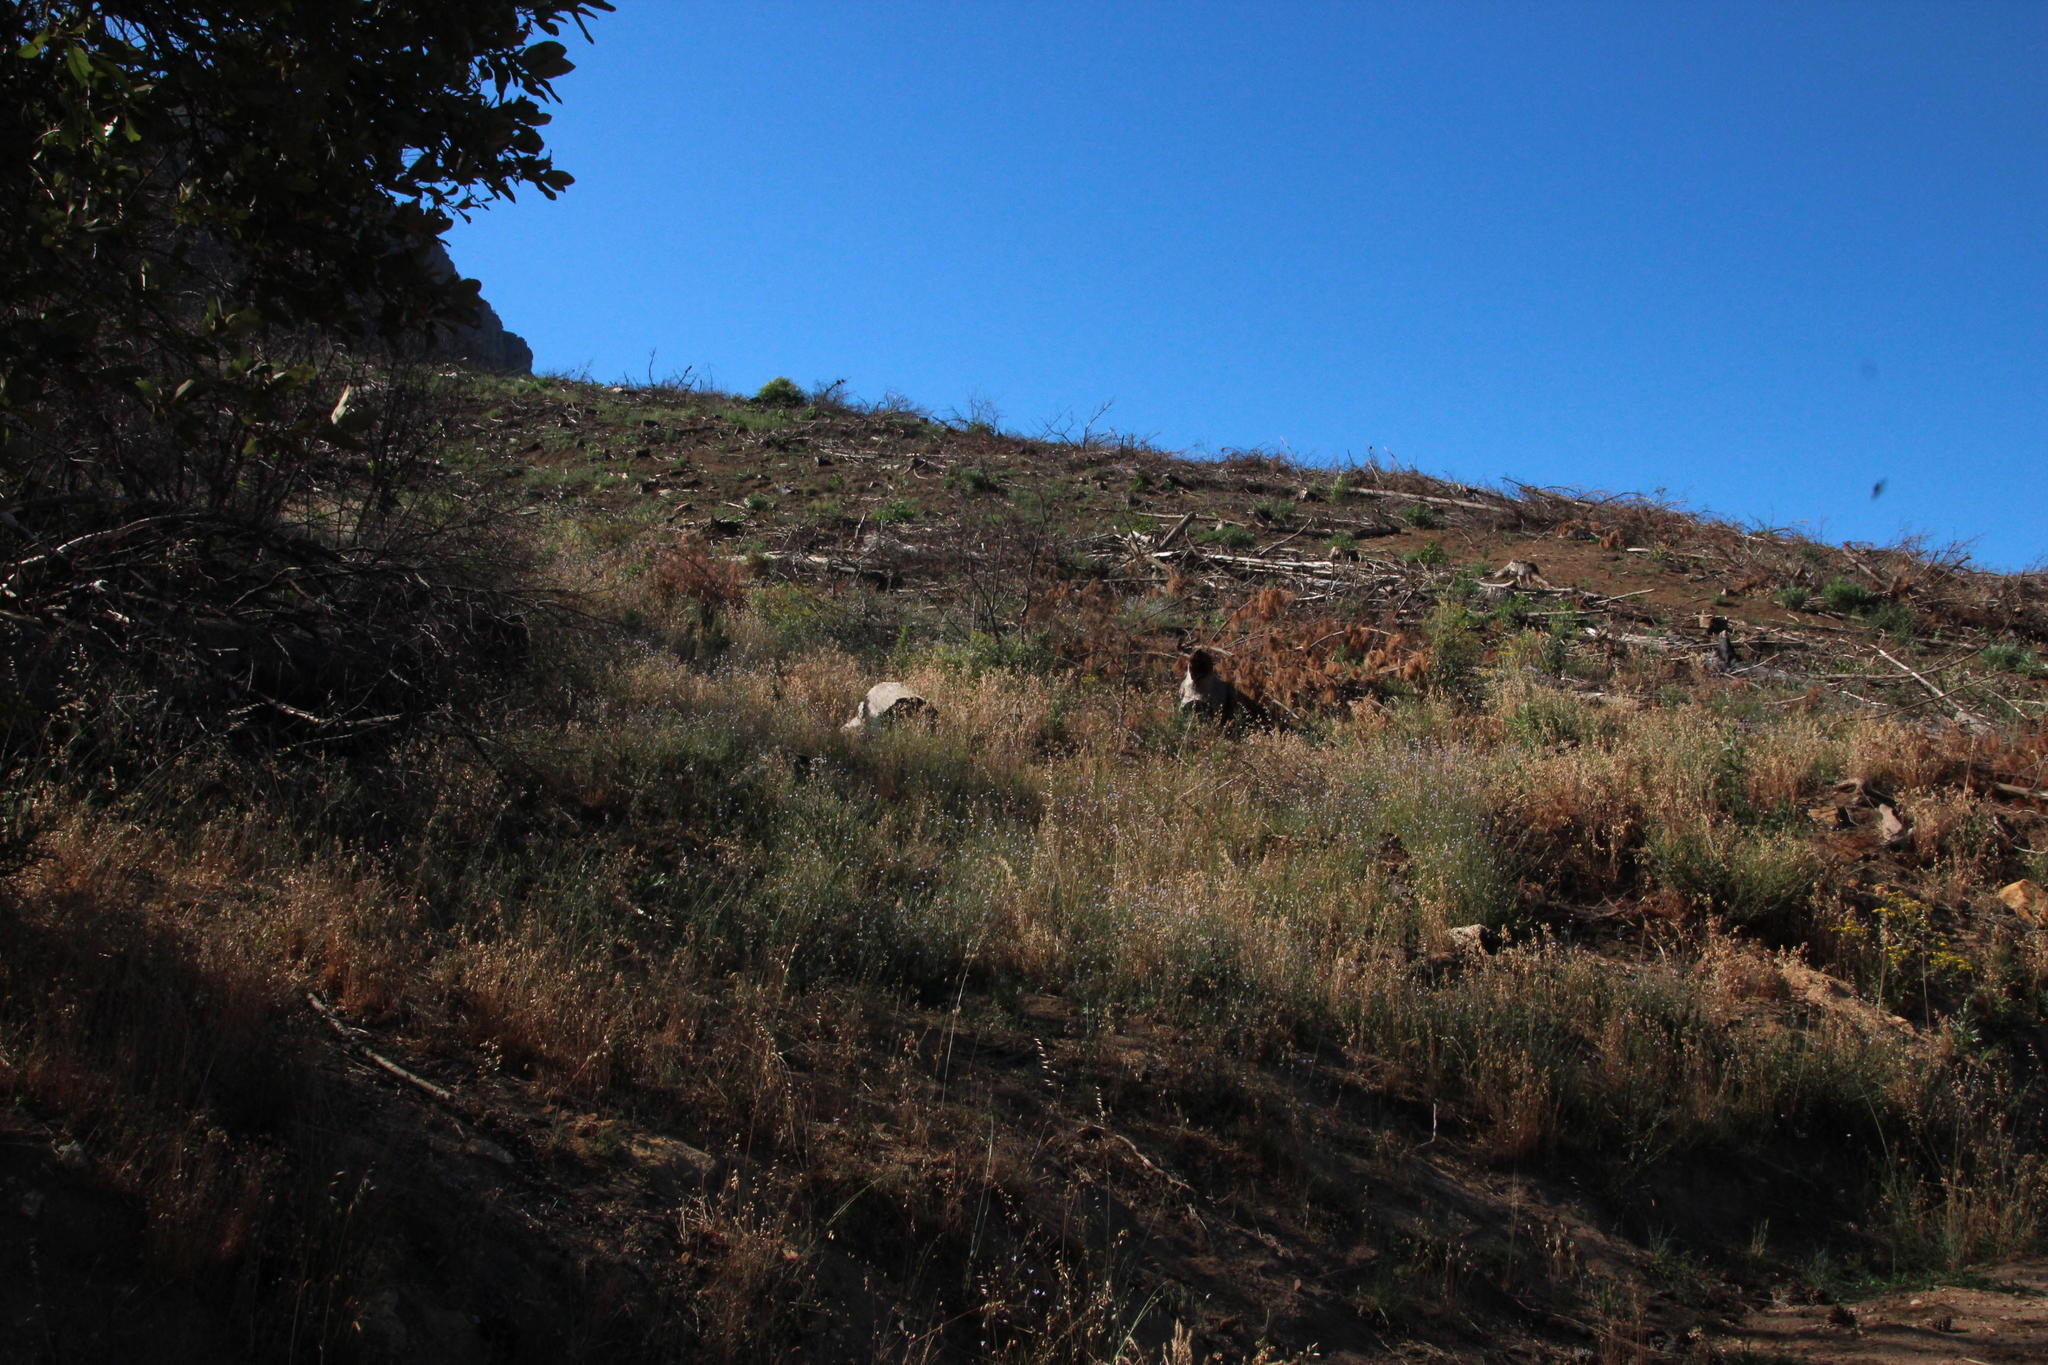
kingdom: Plantae
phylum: Tracheophyta
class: Magnoliopsida
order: Dipsacales
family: Caprifoliaceae
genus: Centranthus
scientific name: Centranthus ruber
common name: Red valerian
